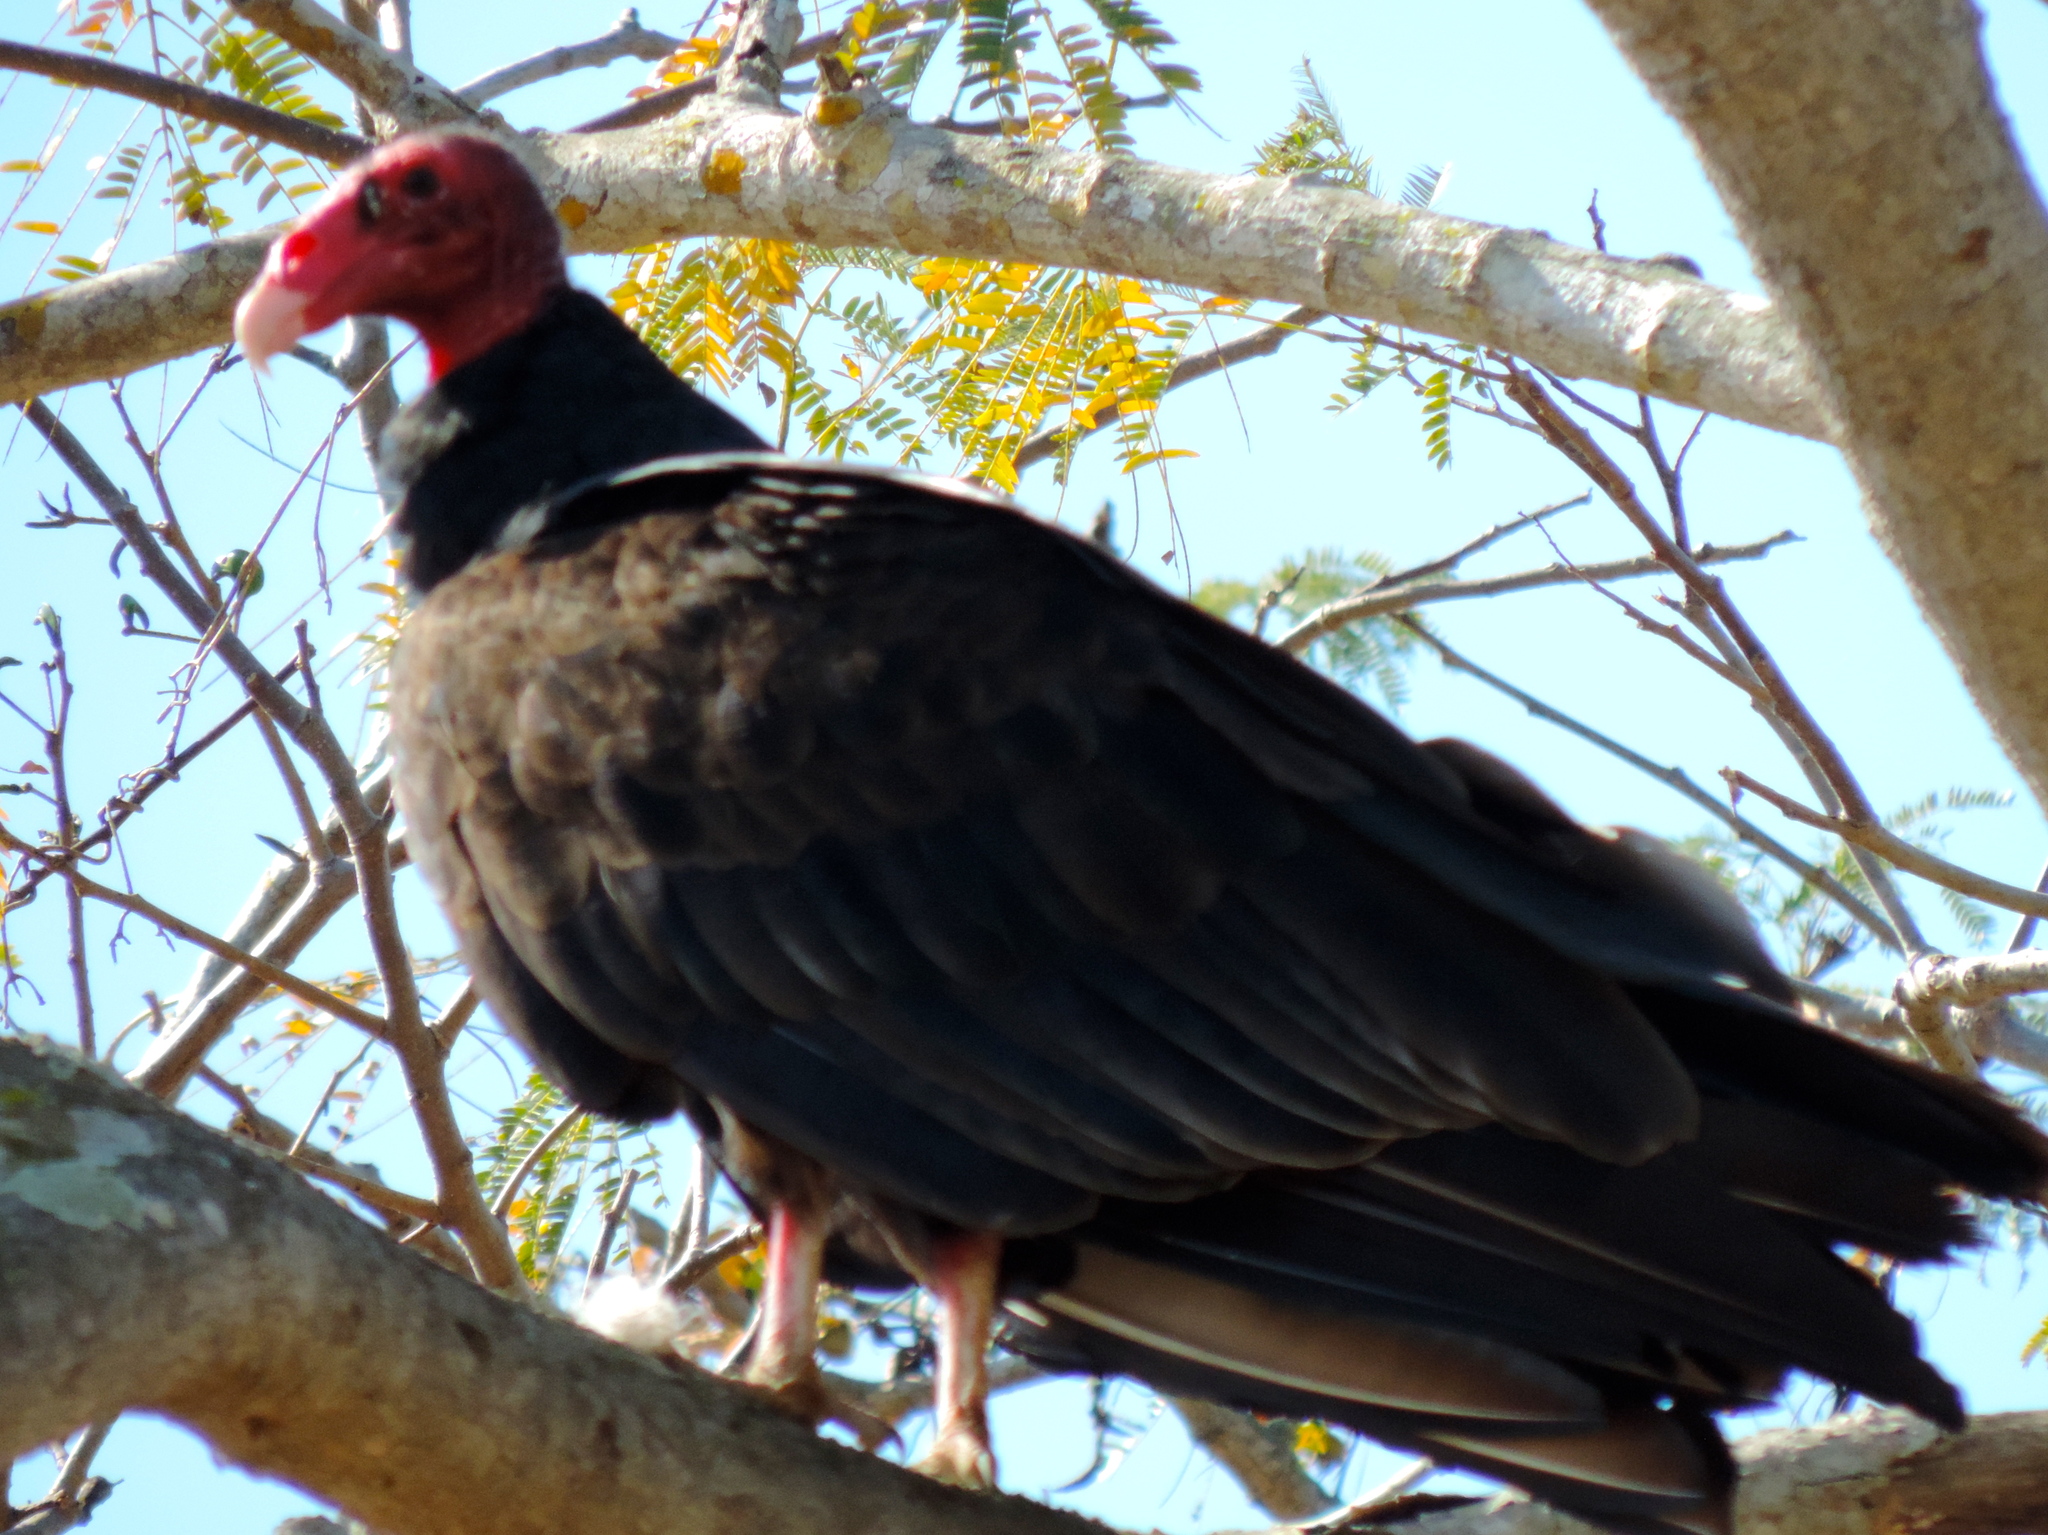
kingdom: Animalia
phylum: Chordata
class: Aves
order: Accipitriformes
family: Cathartidae
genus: Cathartes
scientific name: Cathartes aura
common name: Turkey vulture
